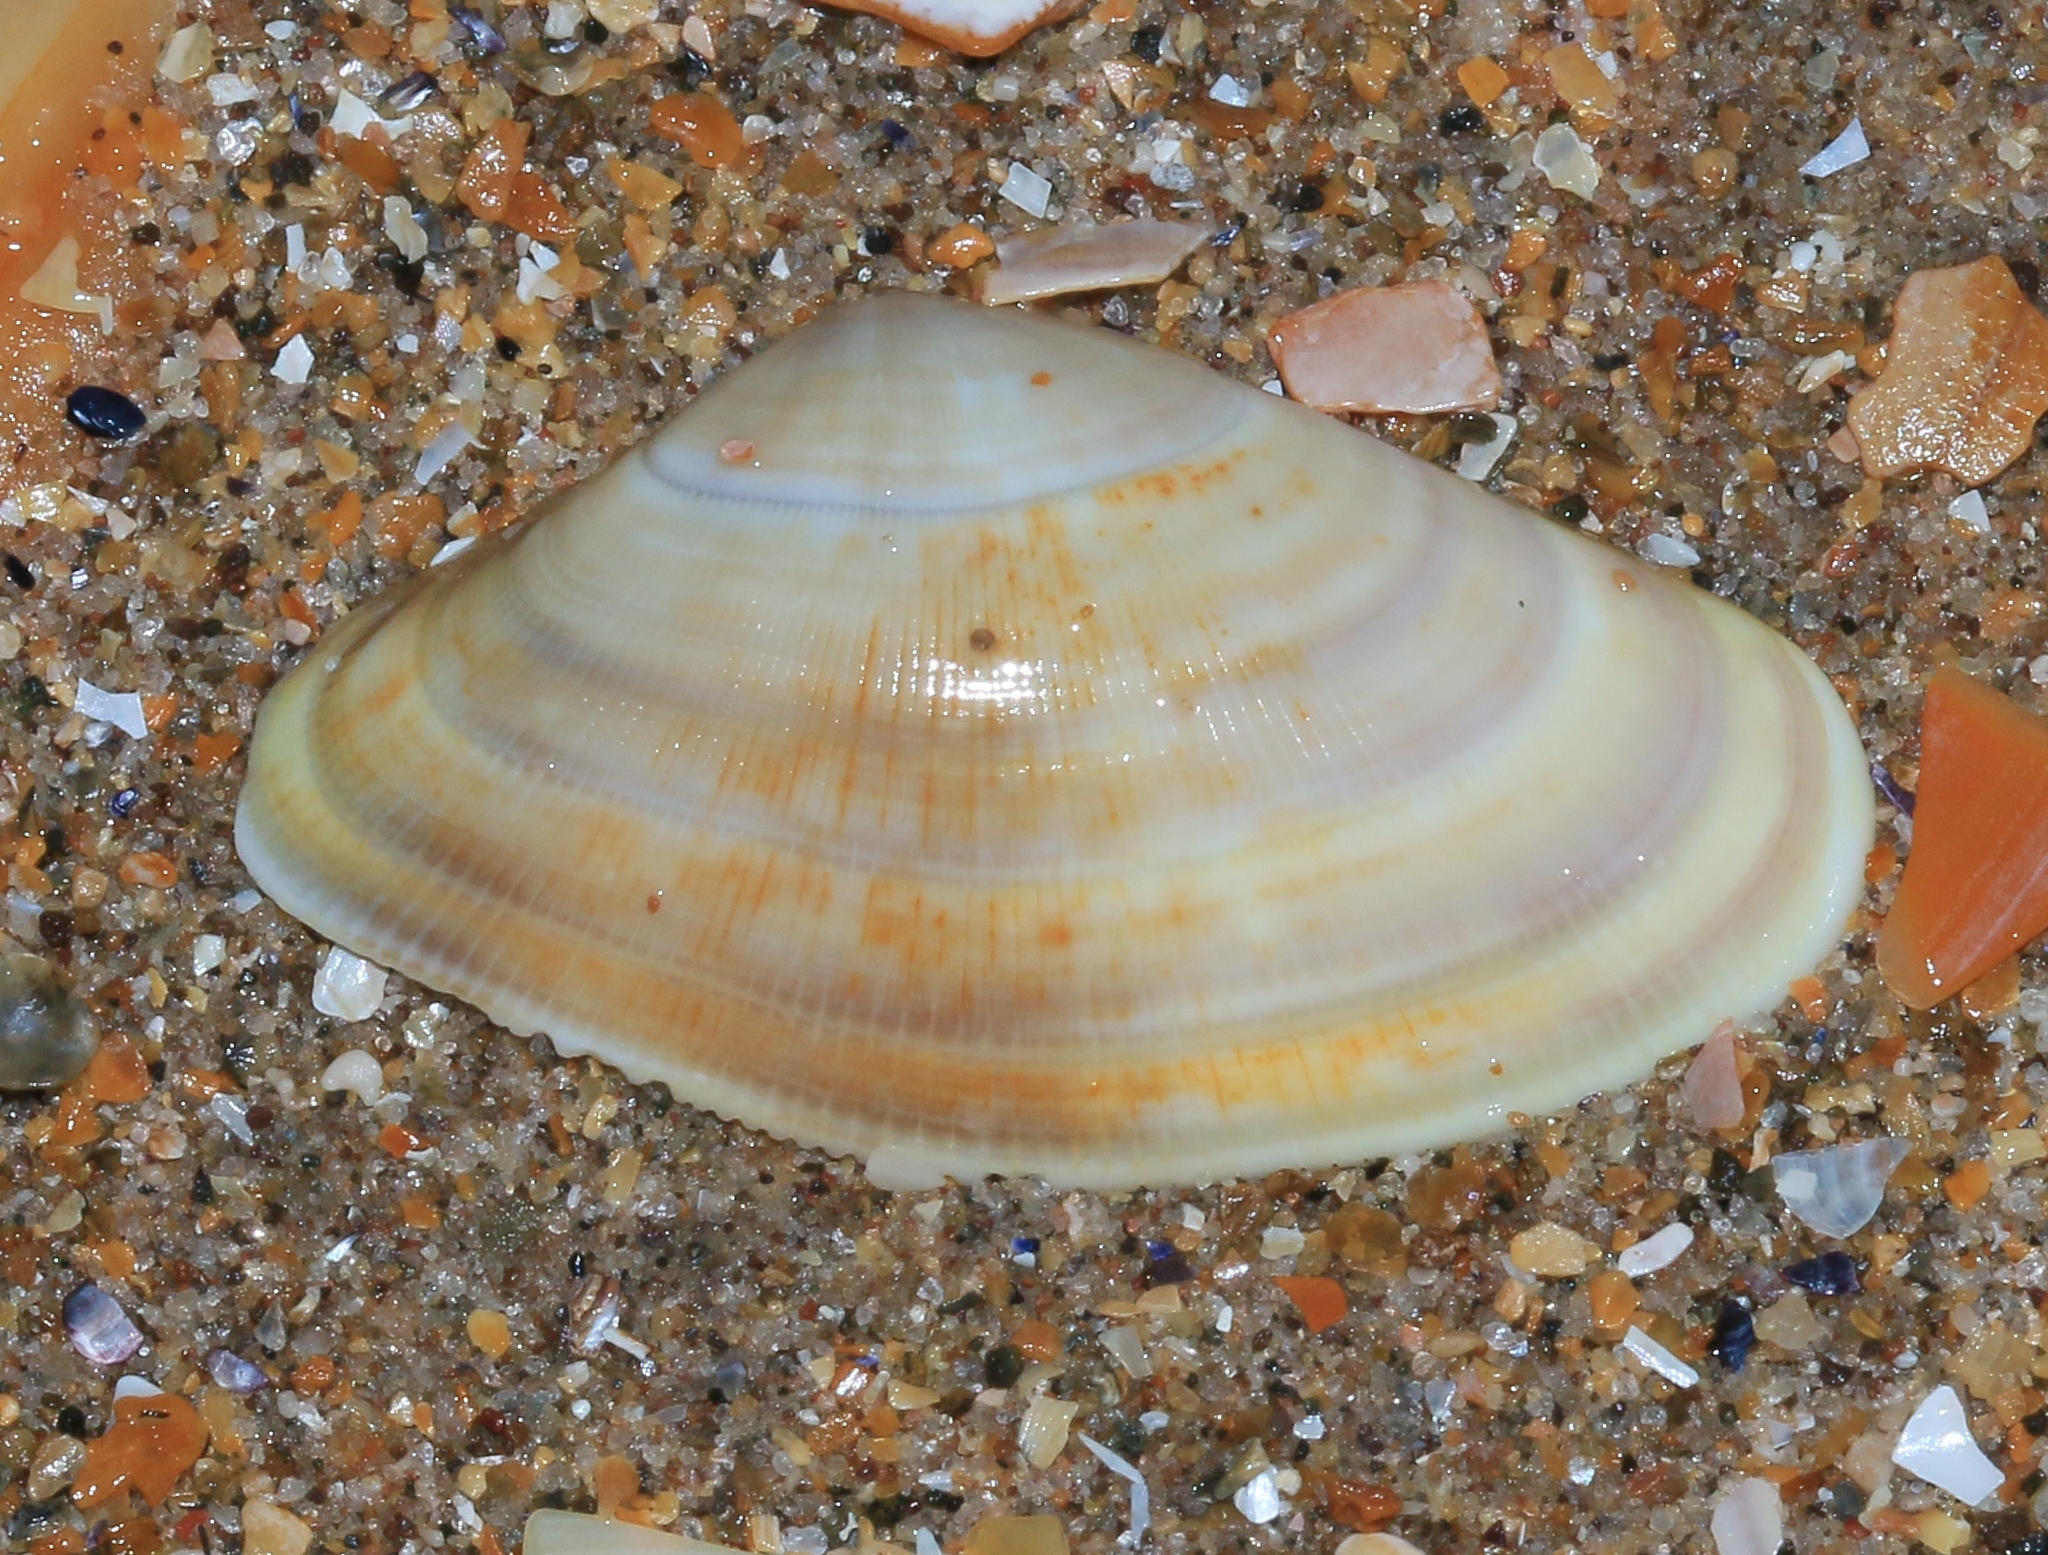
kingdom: Animalia
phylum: Mollusca
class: Bivalvia
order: Cardiida
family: Donacidae
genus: Donax
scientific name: Donax vittatus
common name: Banded wedge-shell
